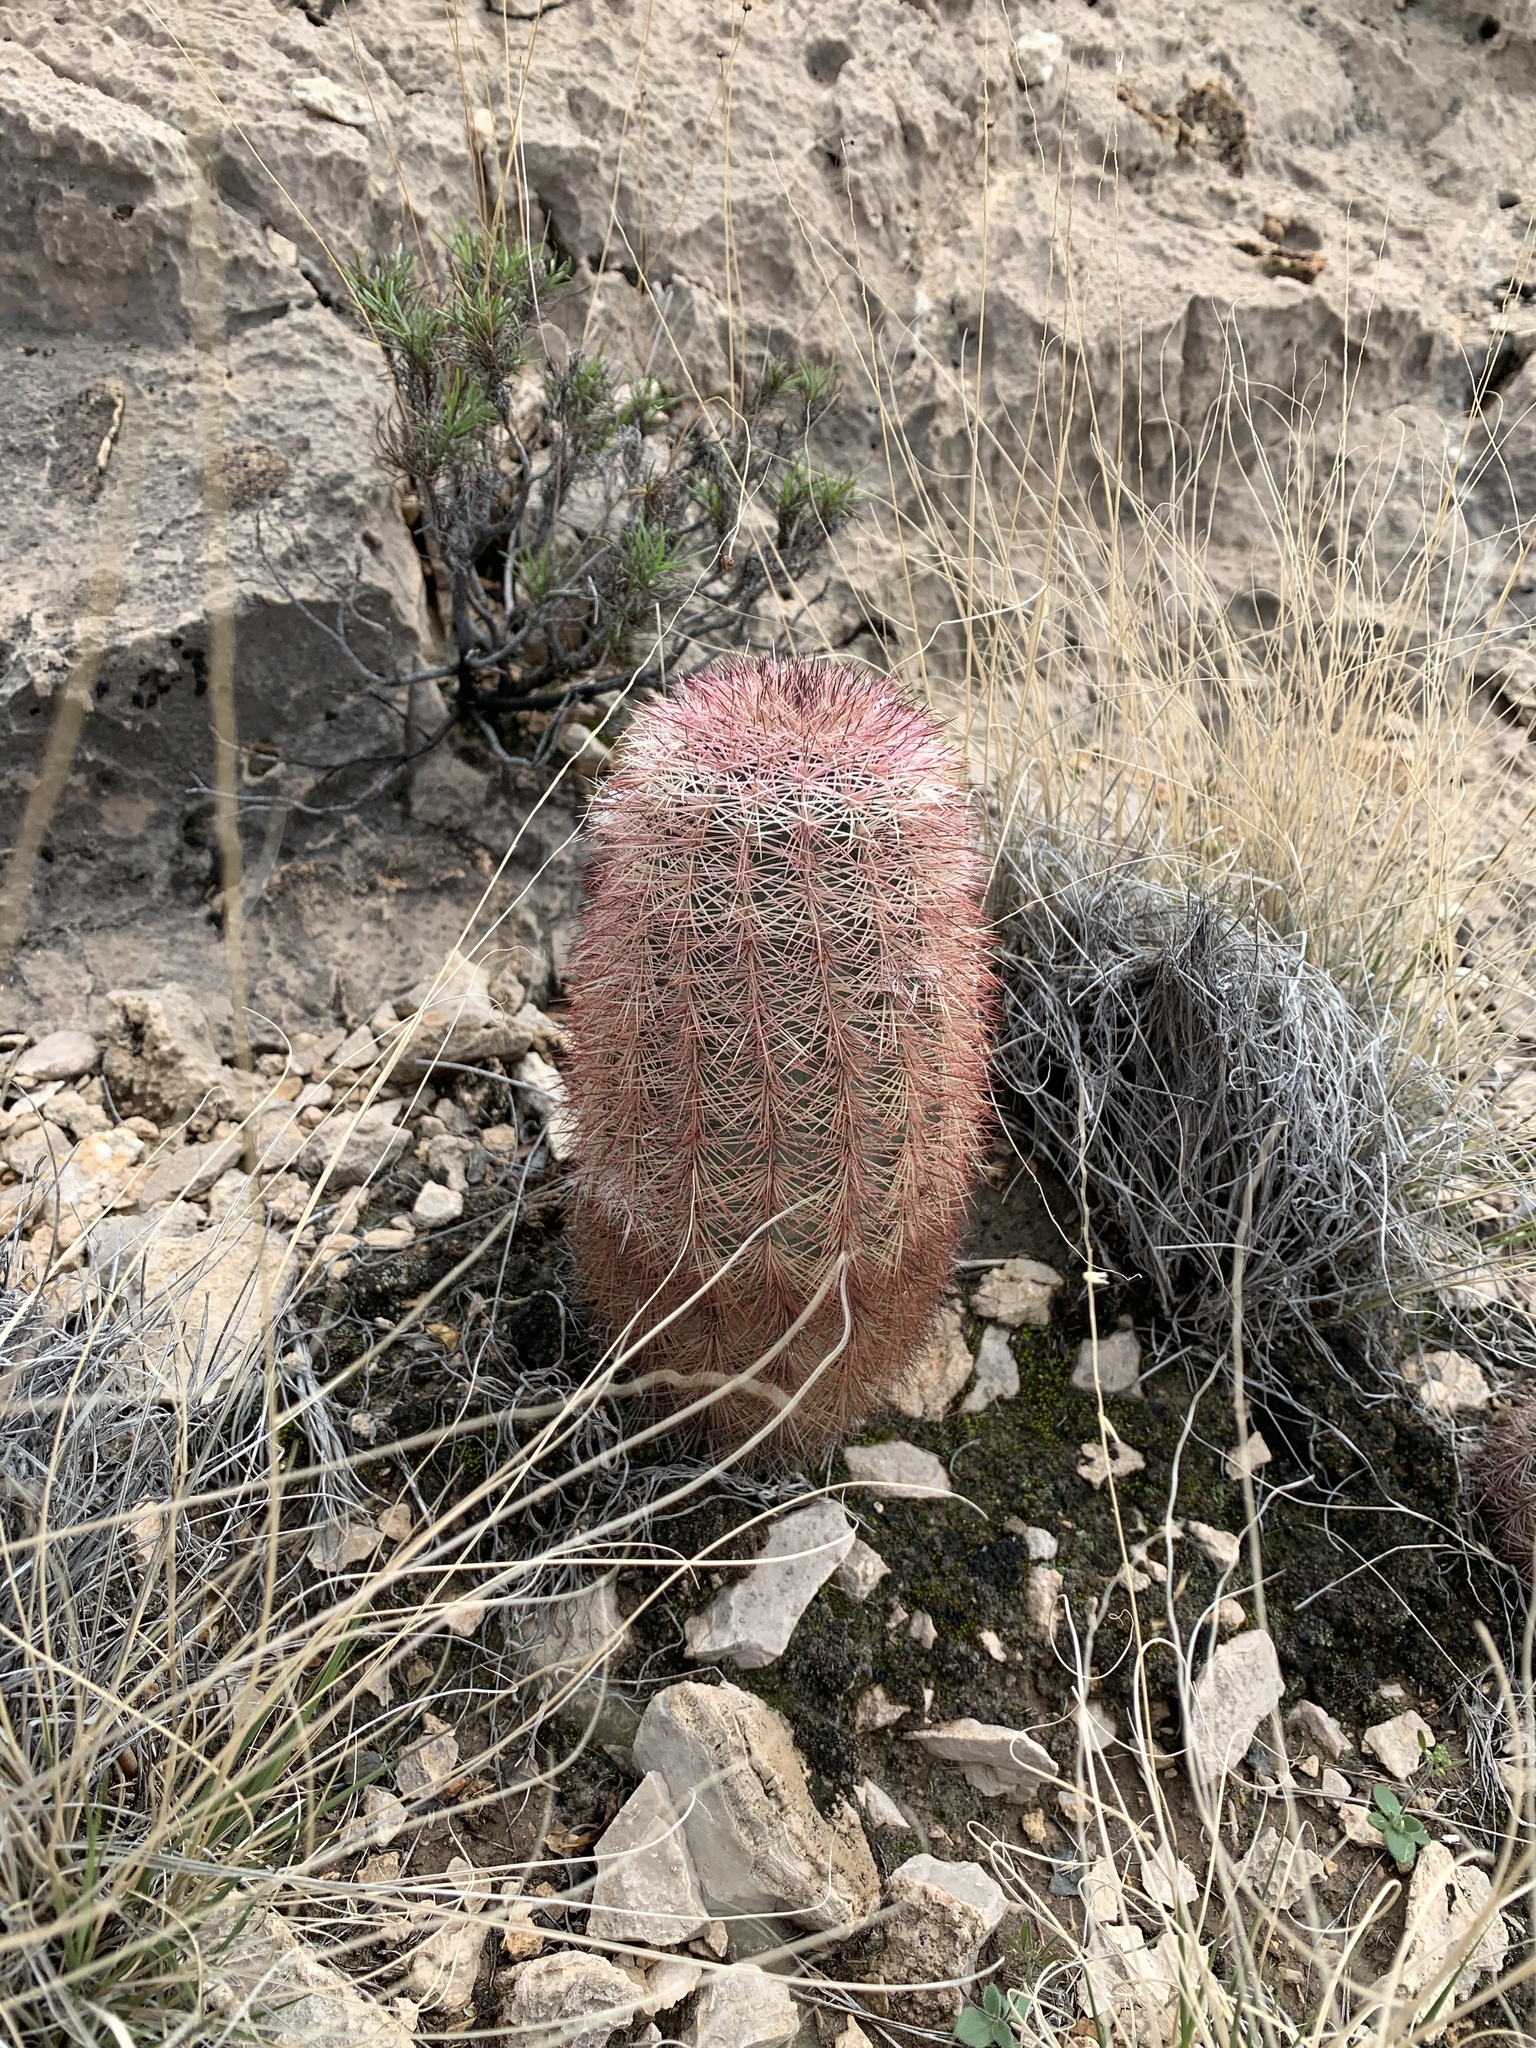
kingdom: Plantae
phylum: Tracheophyta
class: Magnoliopsida
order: Caryophyllales
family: Cactaceae
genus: Echinocereus
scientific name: Echinocereus dasyacanthus
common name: Spiny hedgehog cactus
